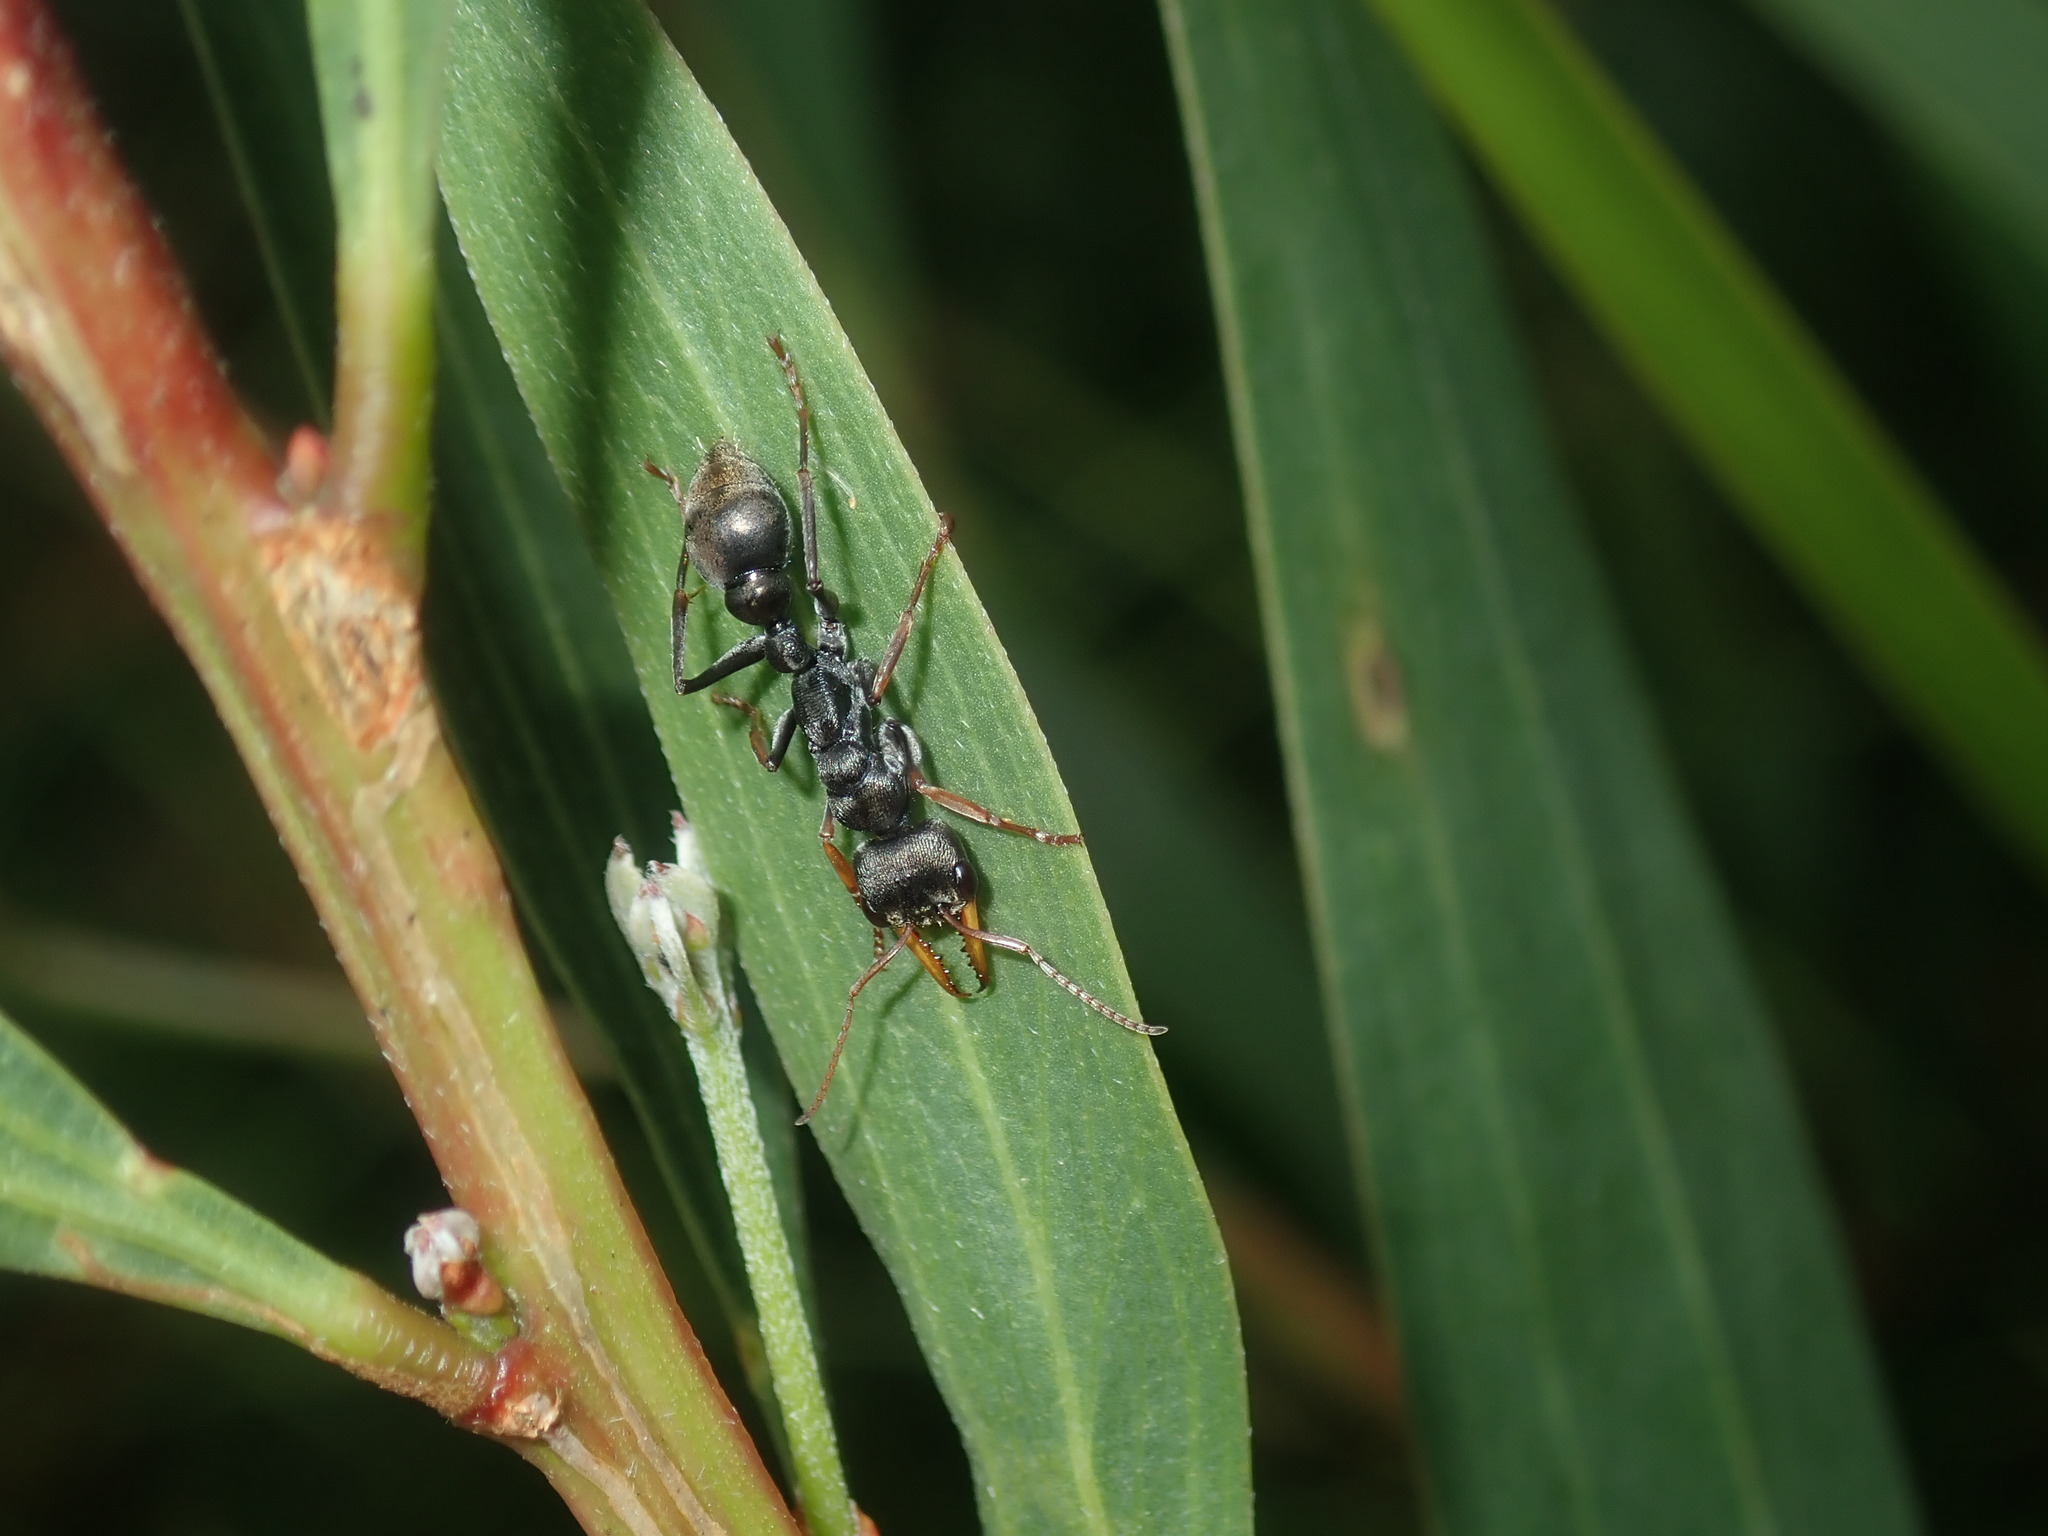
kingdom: Animalia
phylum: Arthropoda
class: Insecta
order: Hymenoptera
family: Formicidae
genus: Myrmecia
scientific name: Myrmecia pilosula
